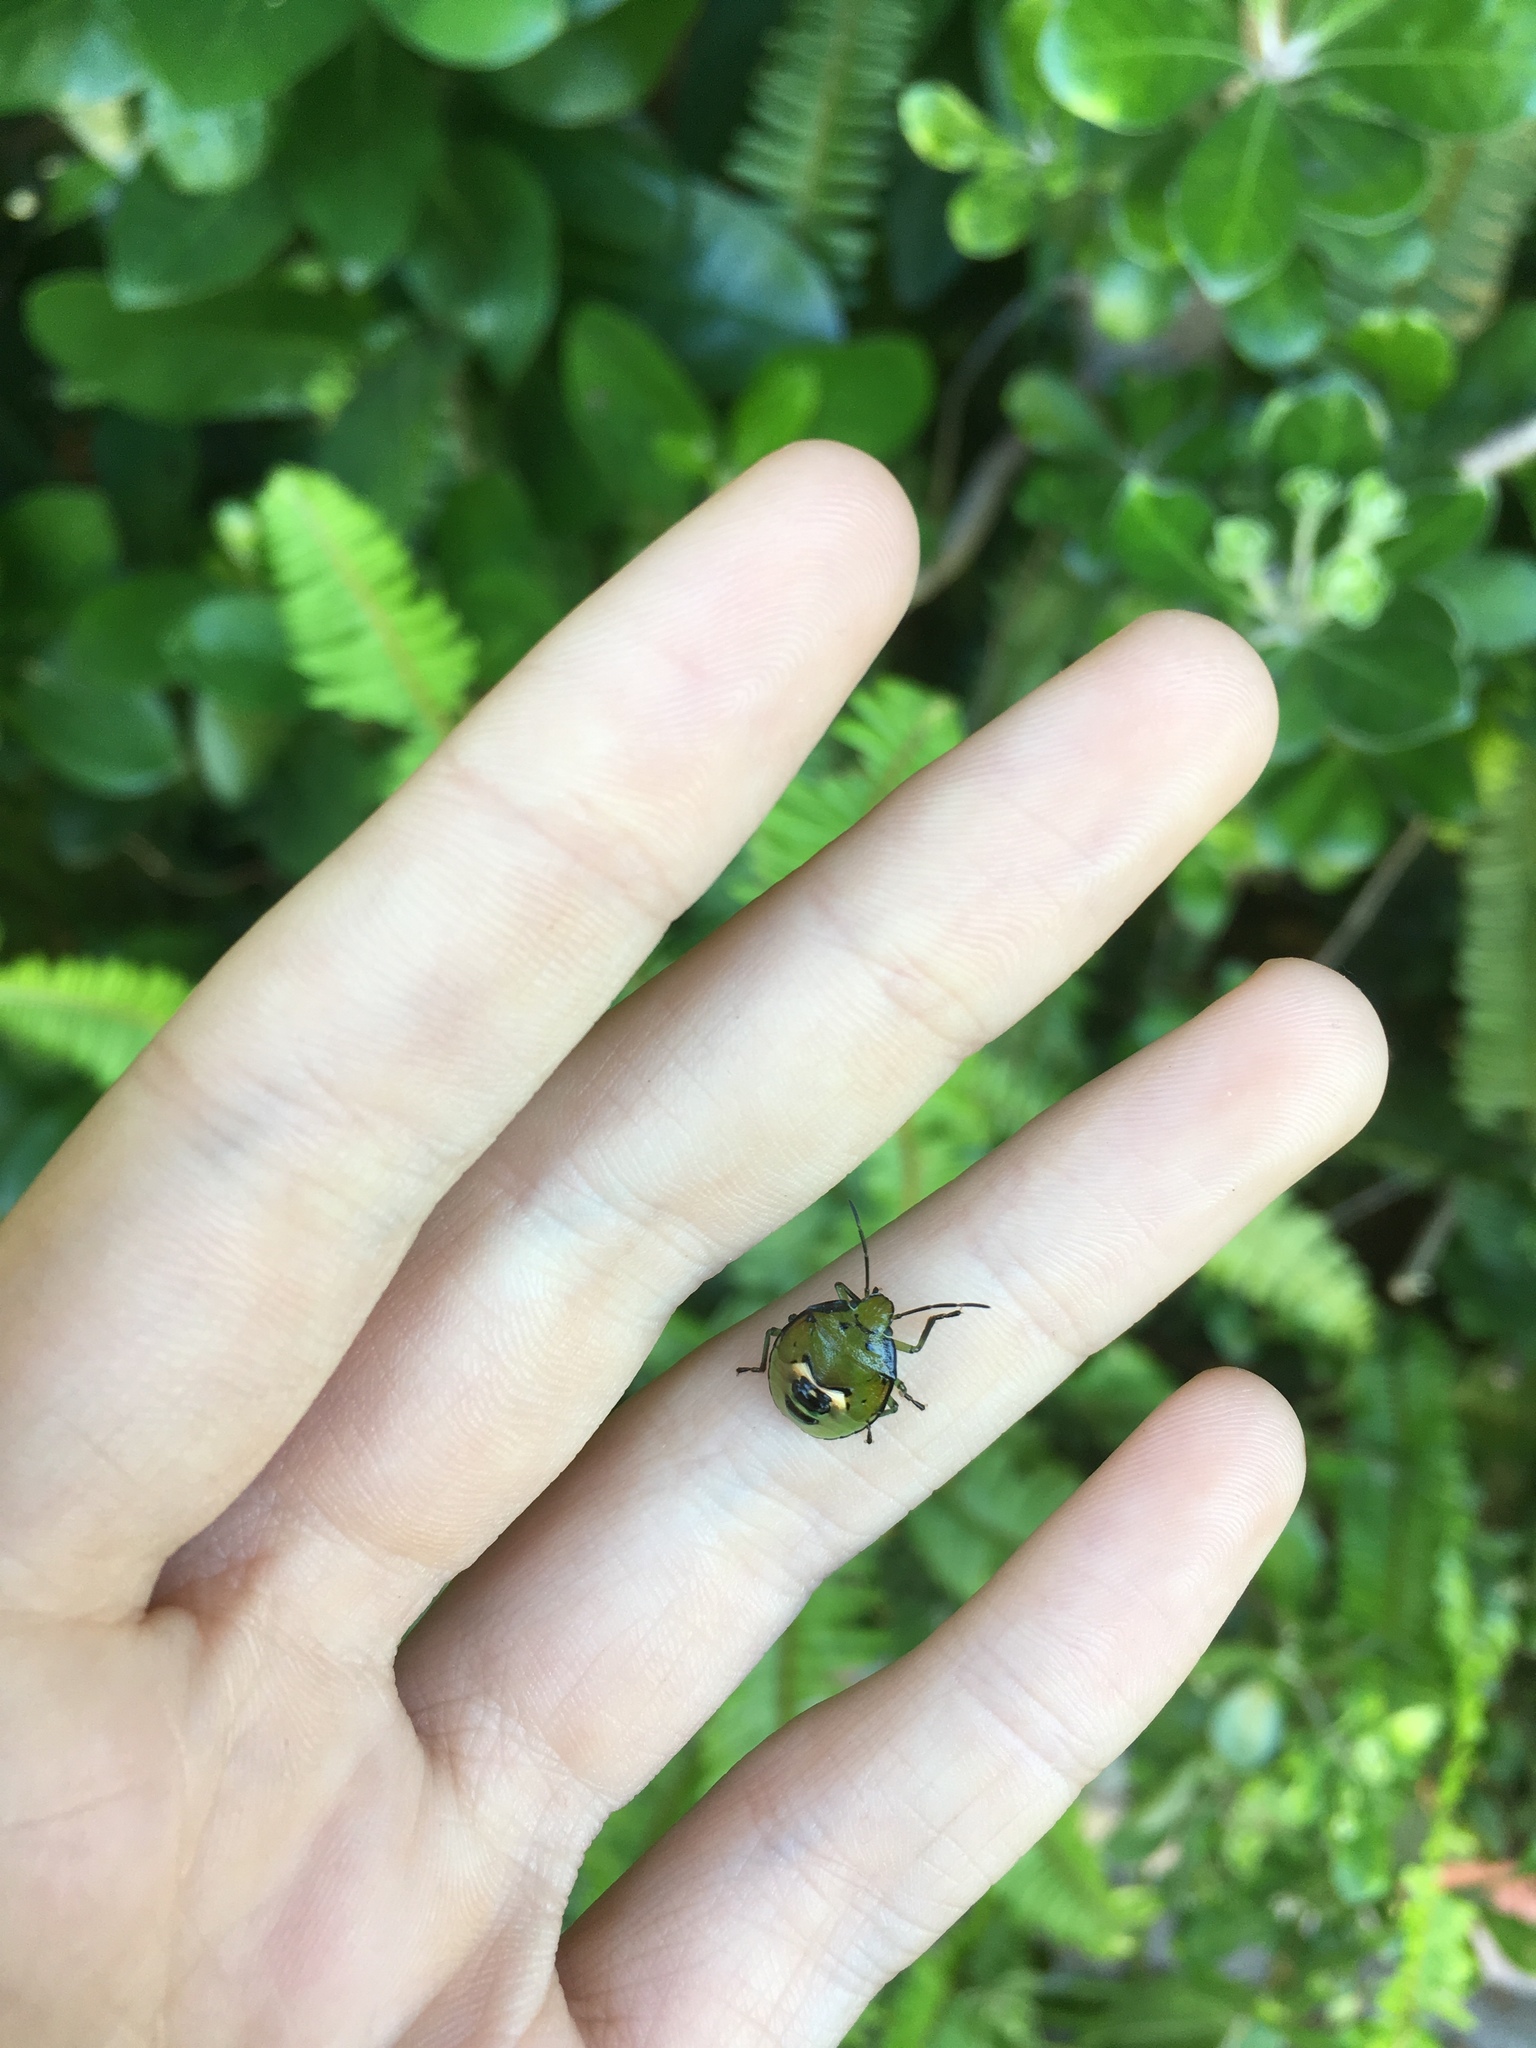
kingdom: Animalia
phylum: Arthropoda
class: Insecta
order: Hemiptera
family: Pentatomidae
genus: Glaucias
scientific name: Glaucias amyota
